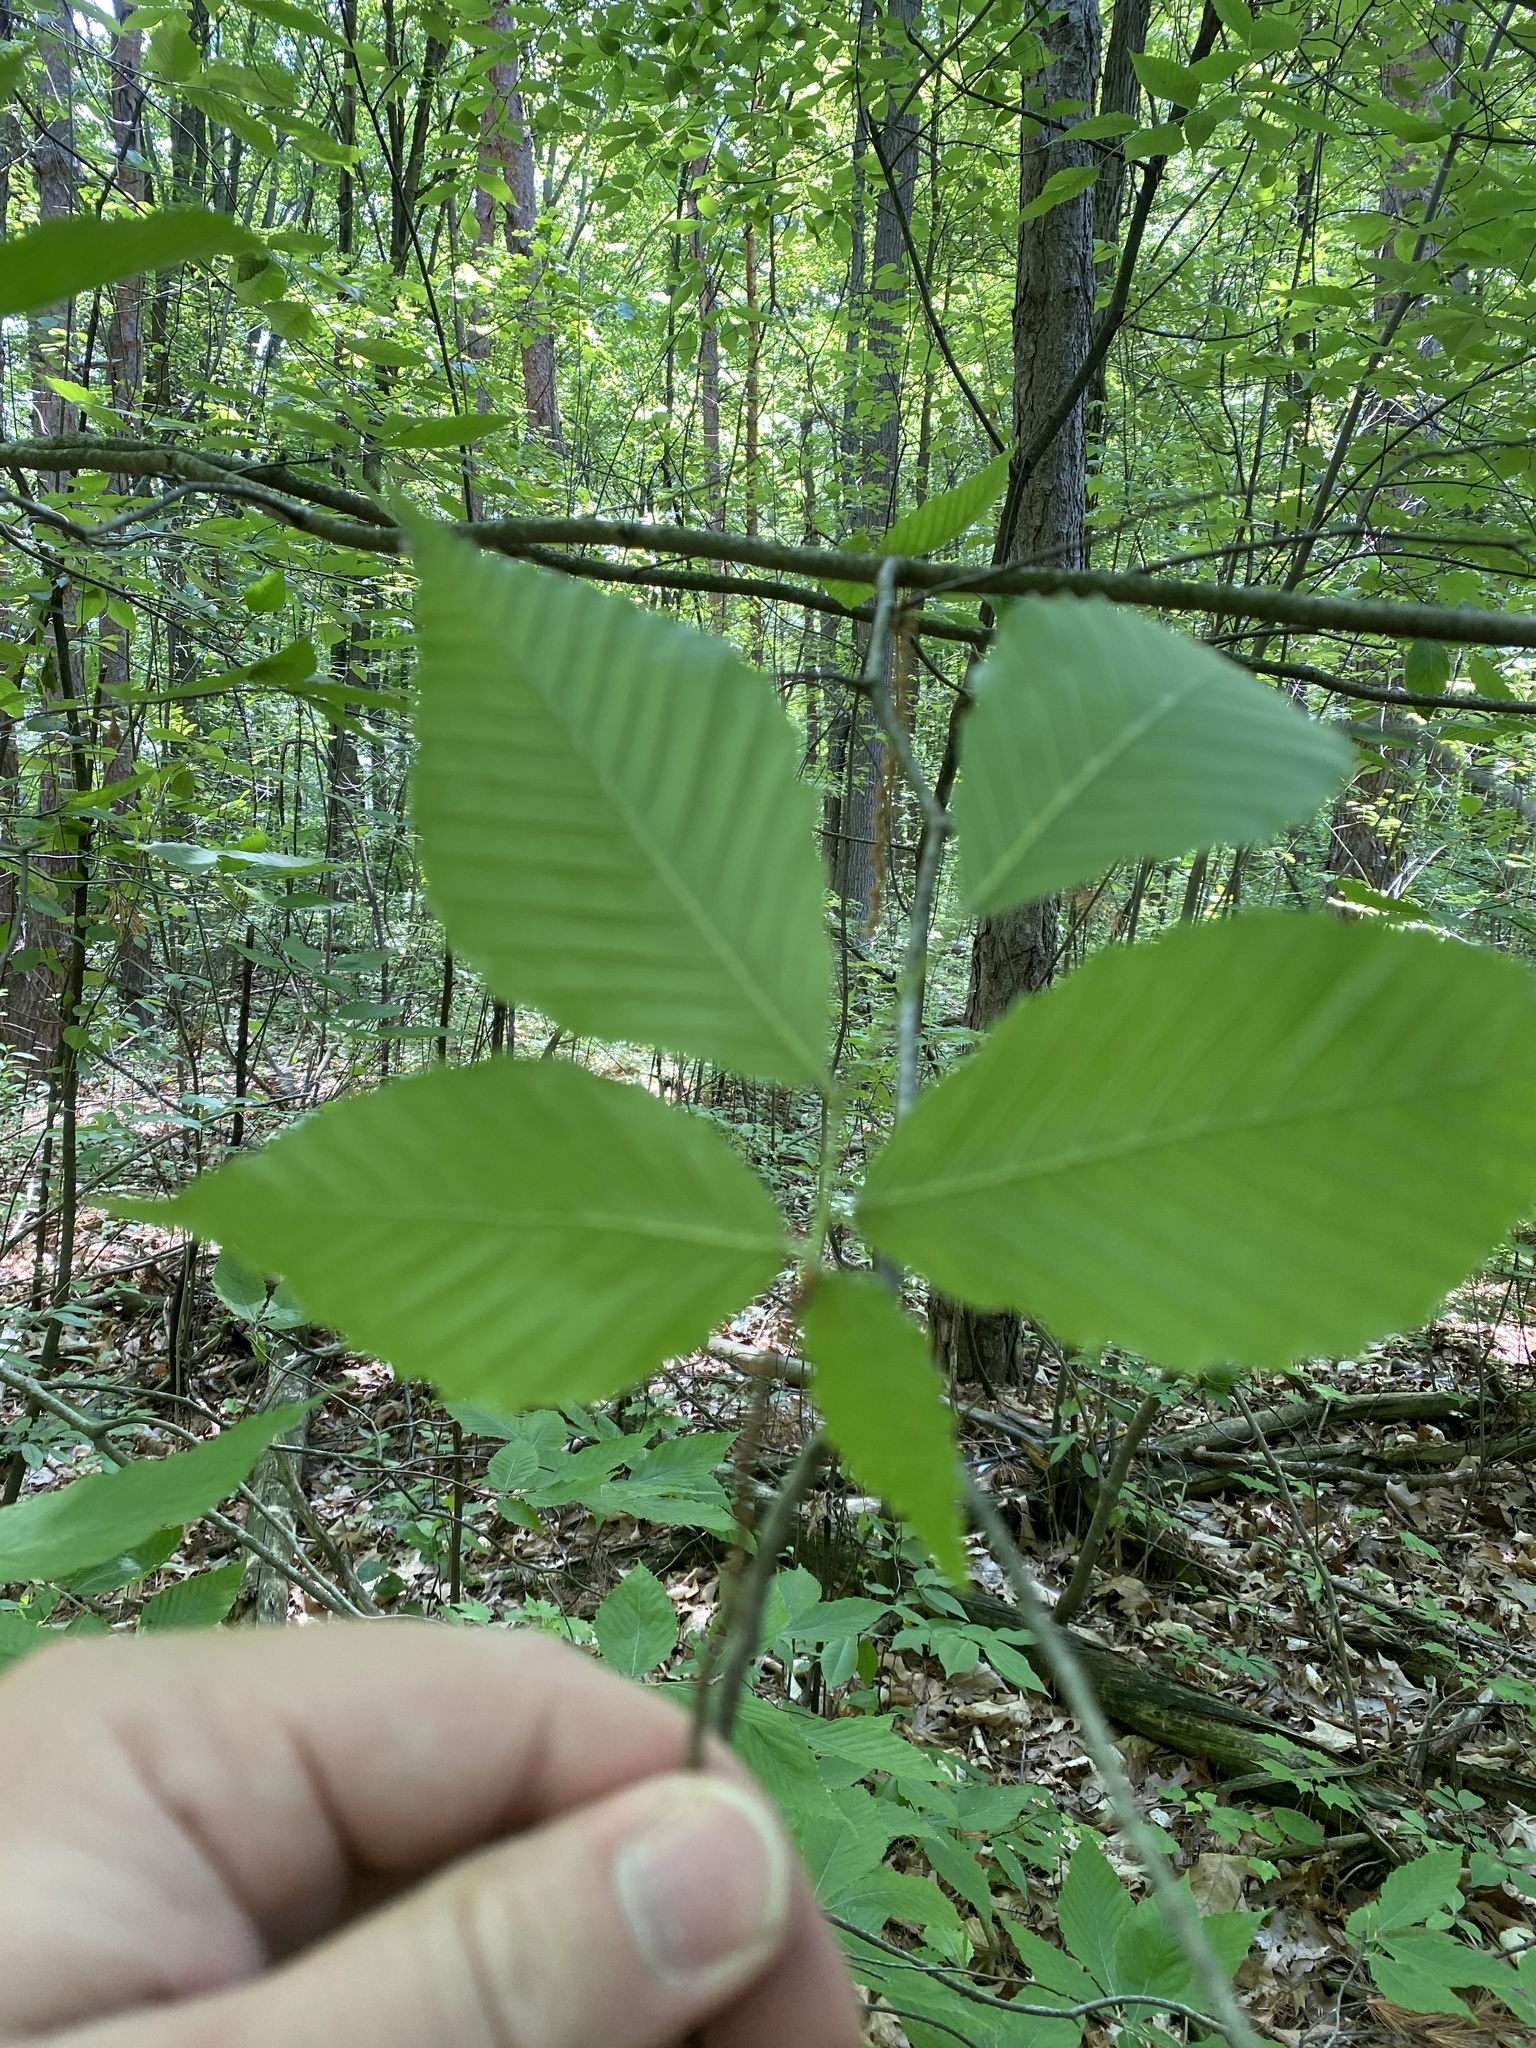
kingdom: Plantae
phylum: Tracheophyta
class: Magnoliopsida
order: Fagales
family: Fagaceae
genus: Fagus
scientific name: Fagus grandifolia
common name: American beech
